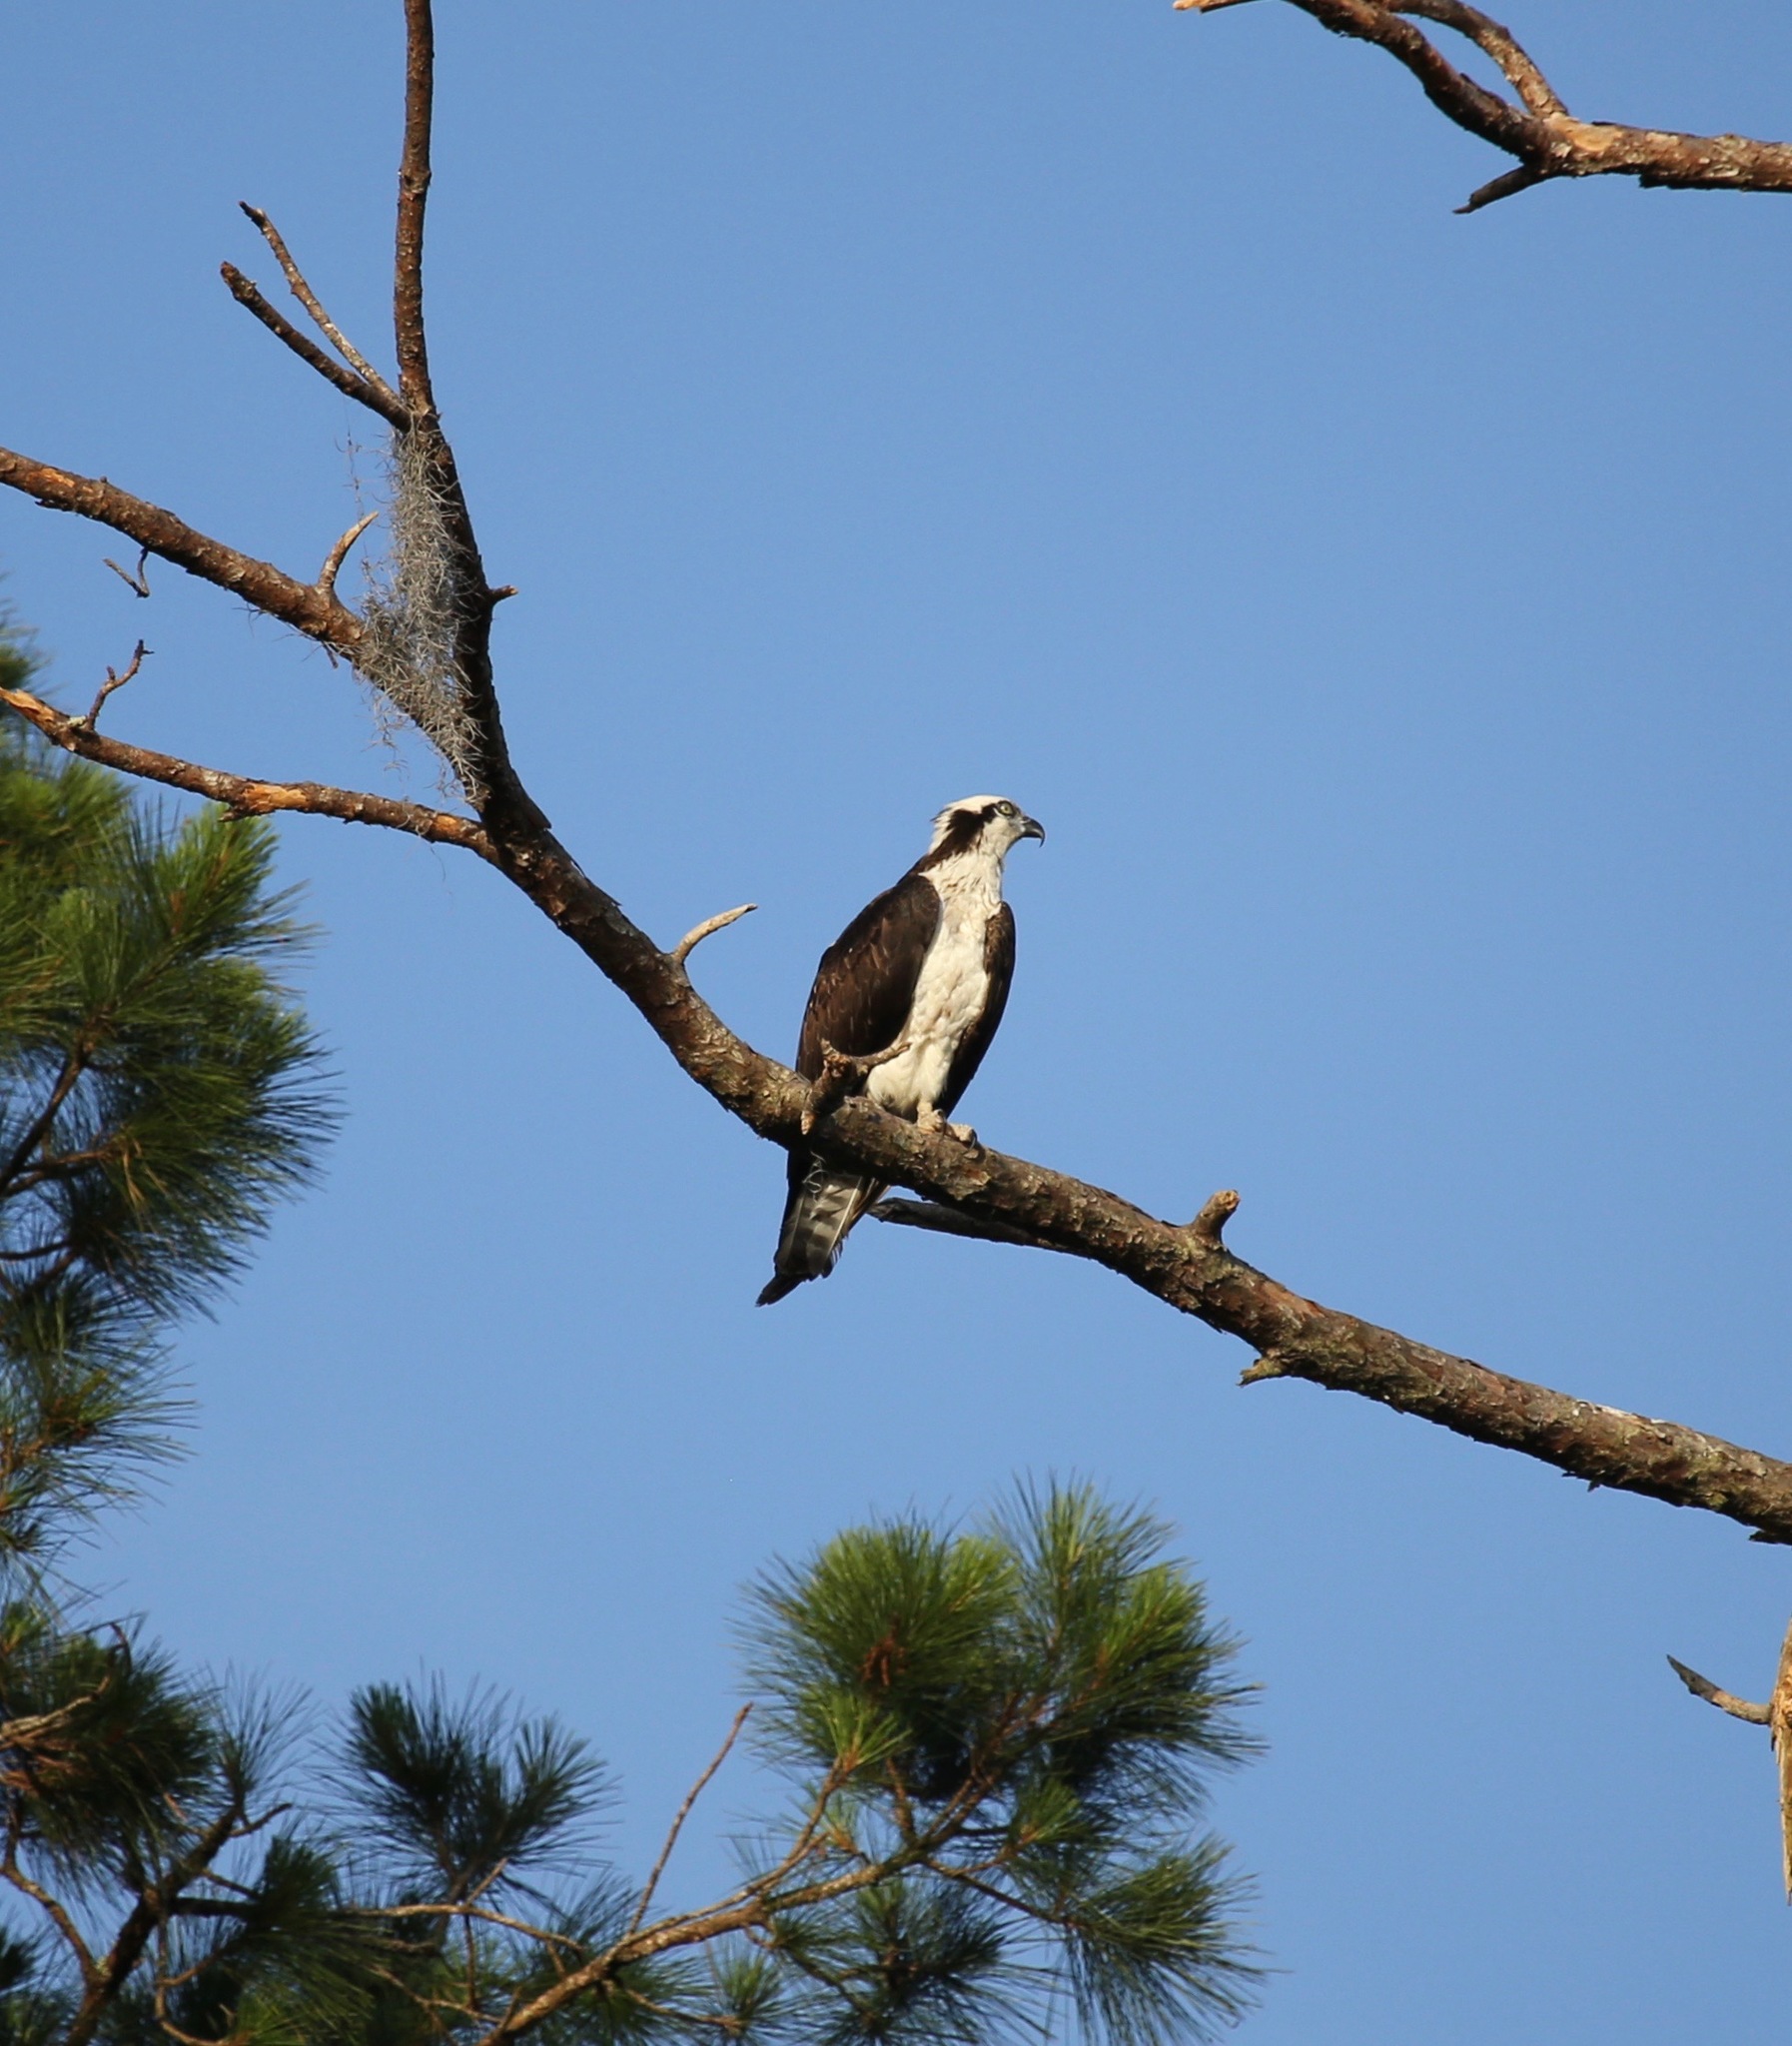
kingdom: Animalia
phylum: Chordata
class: Aves
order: Accipitriformes
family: Pandionidae
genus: Pandion
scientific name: Pandion haliaetus
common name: Osprey
